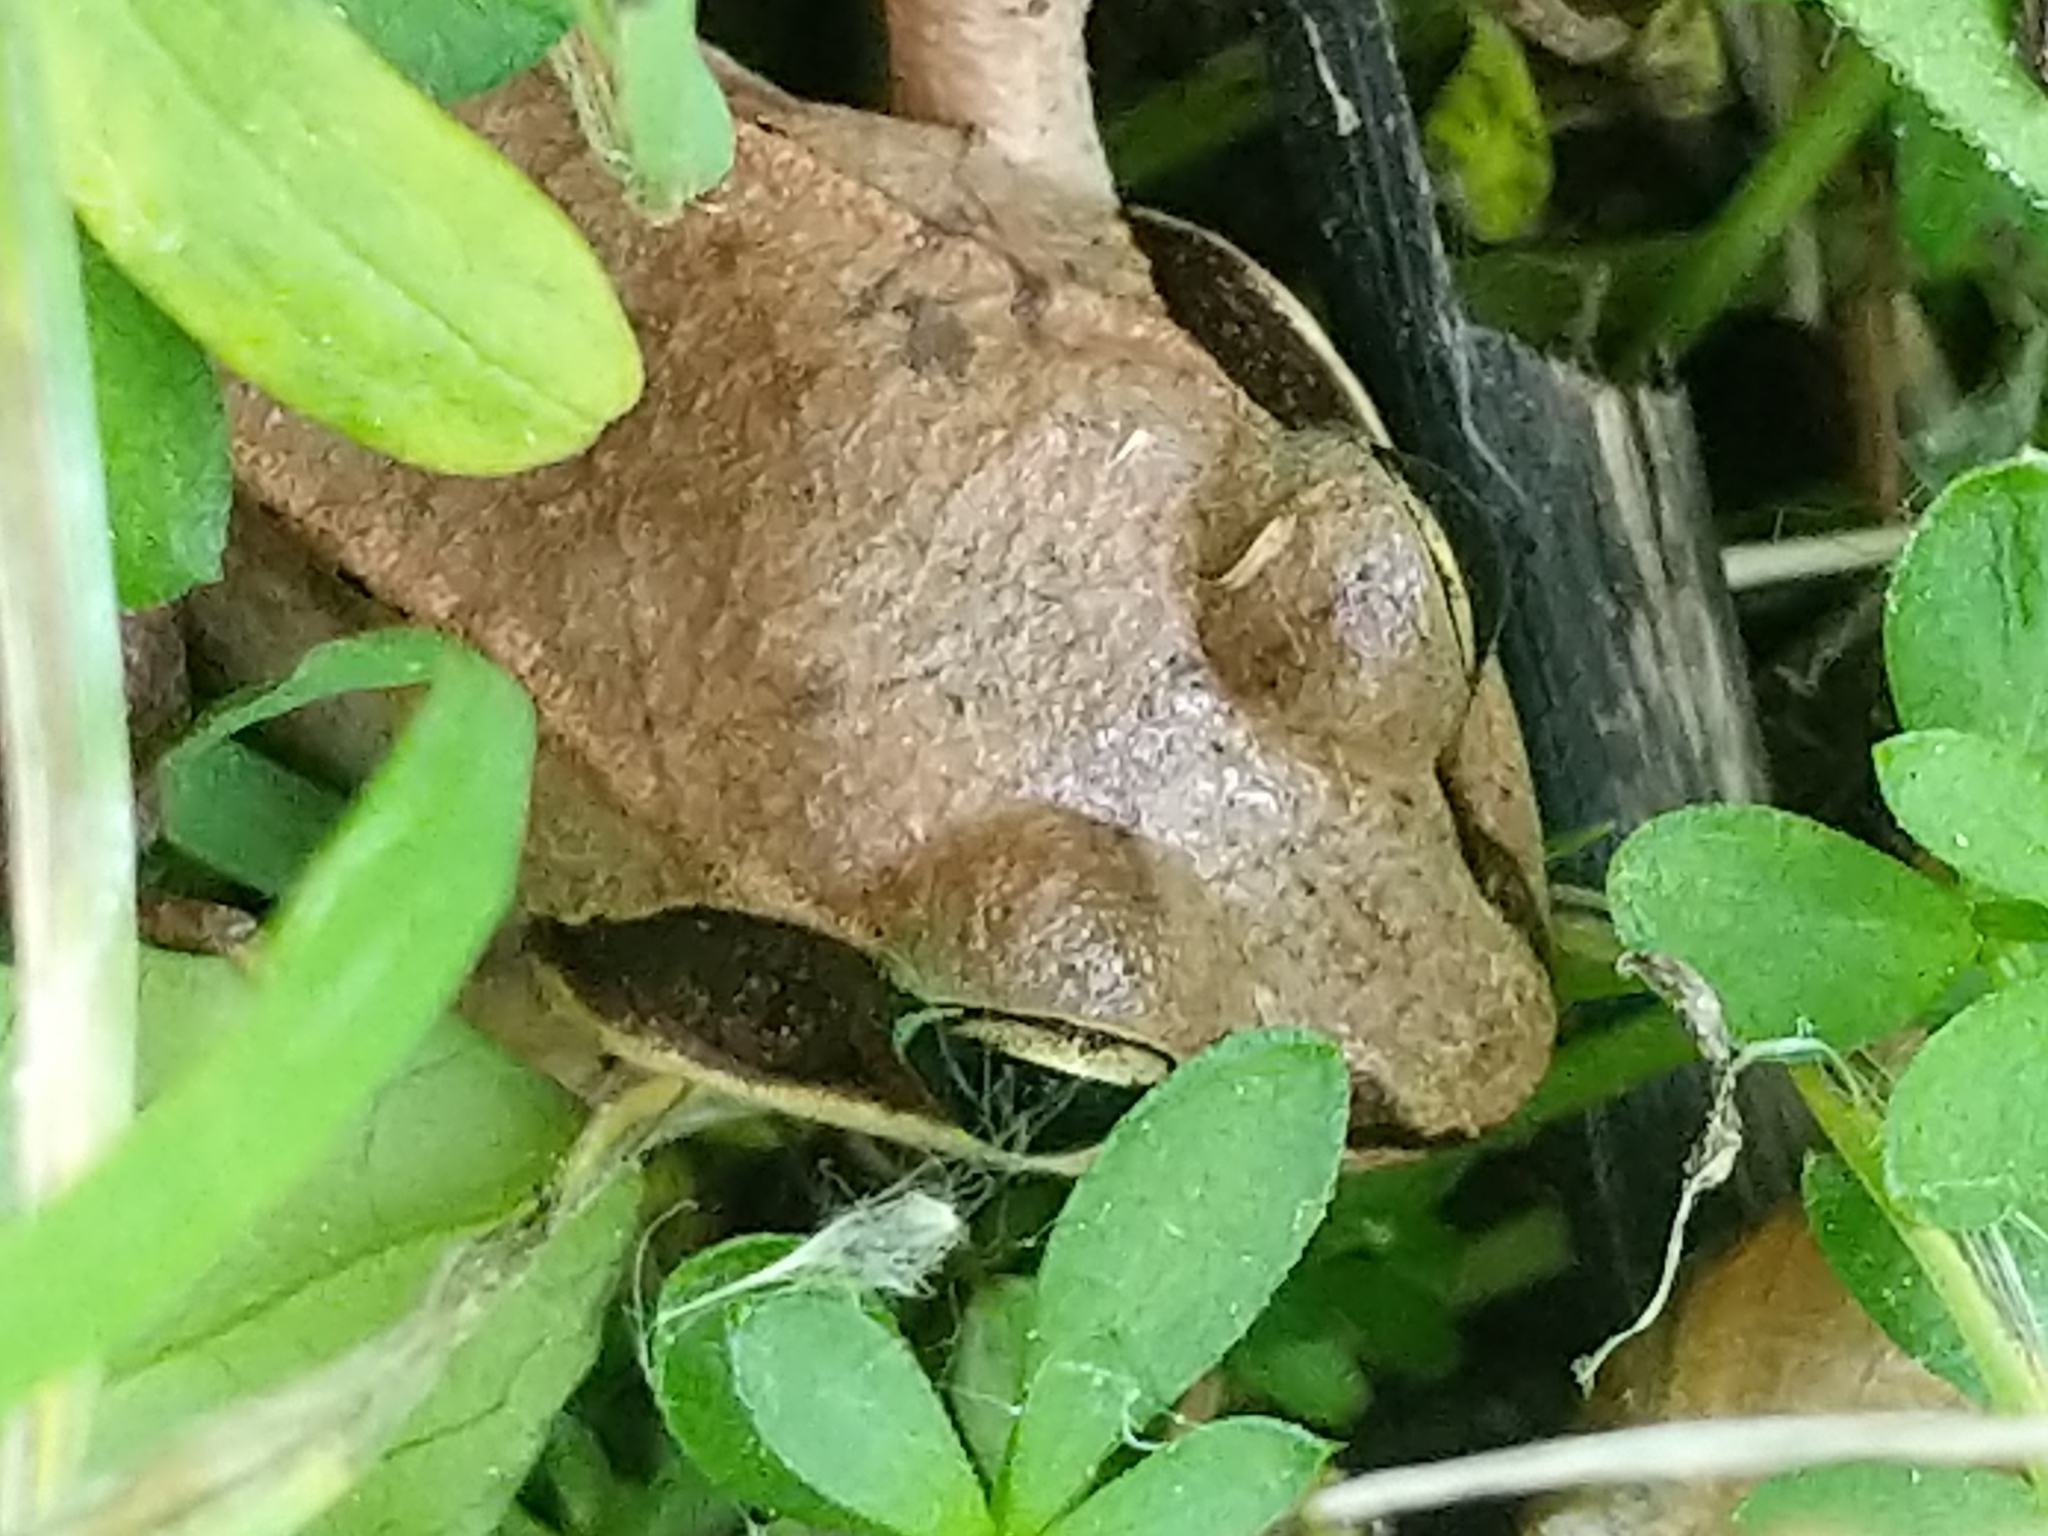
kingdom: Animalia
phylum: Chordata
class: Amphibia
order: Anura
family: Ranidae
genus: Lithobates
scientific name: Lithobates sylvaticus
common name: Wood frog
